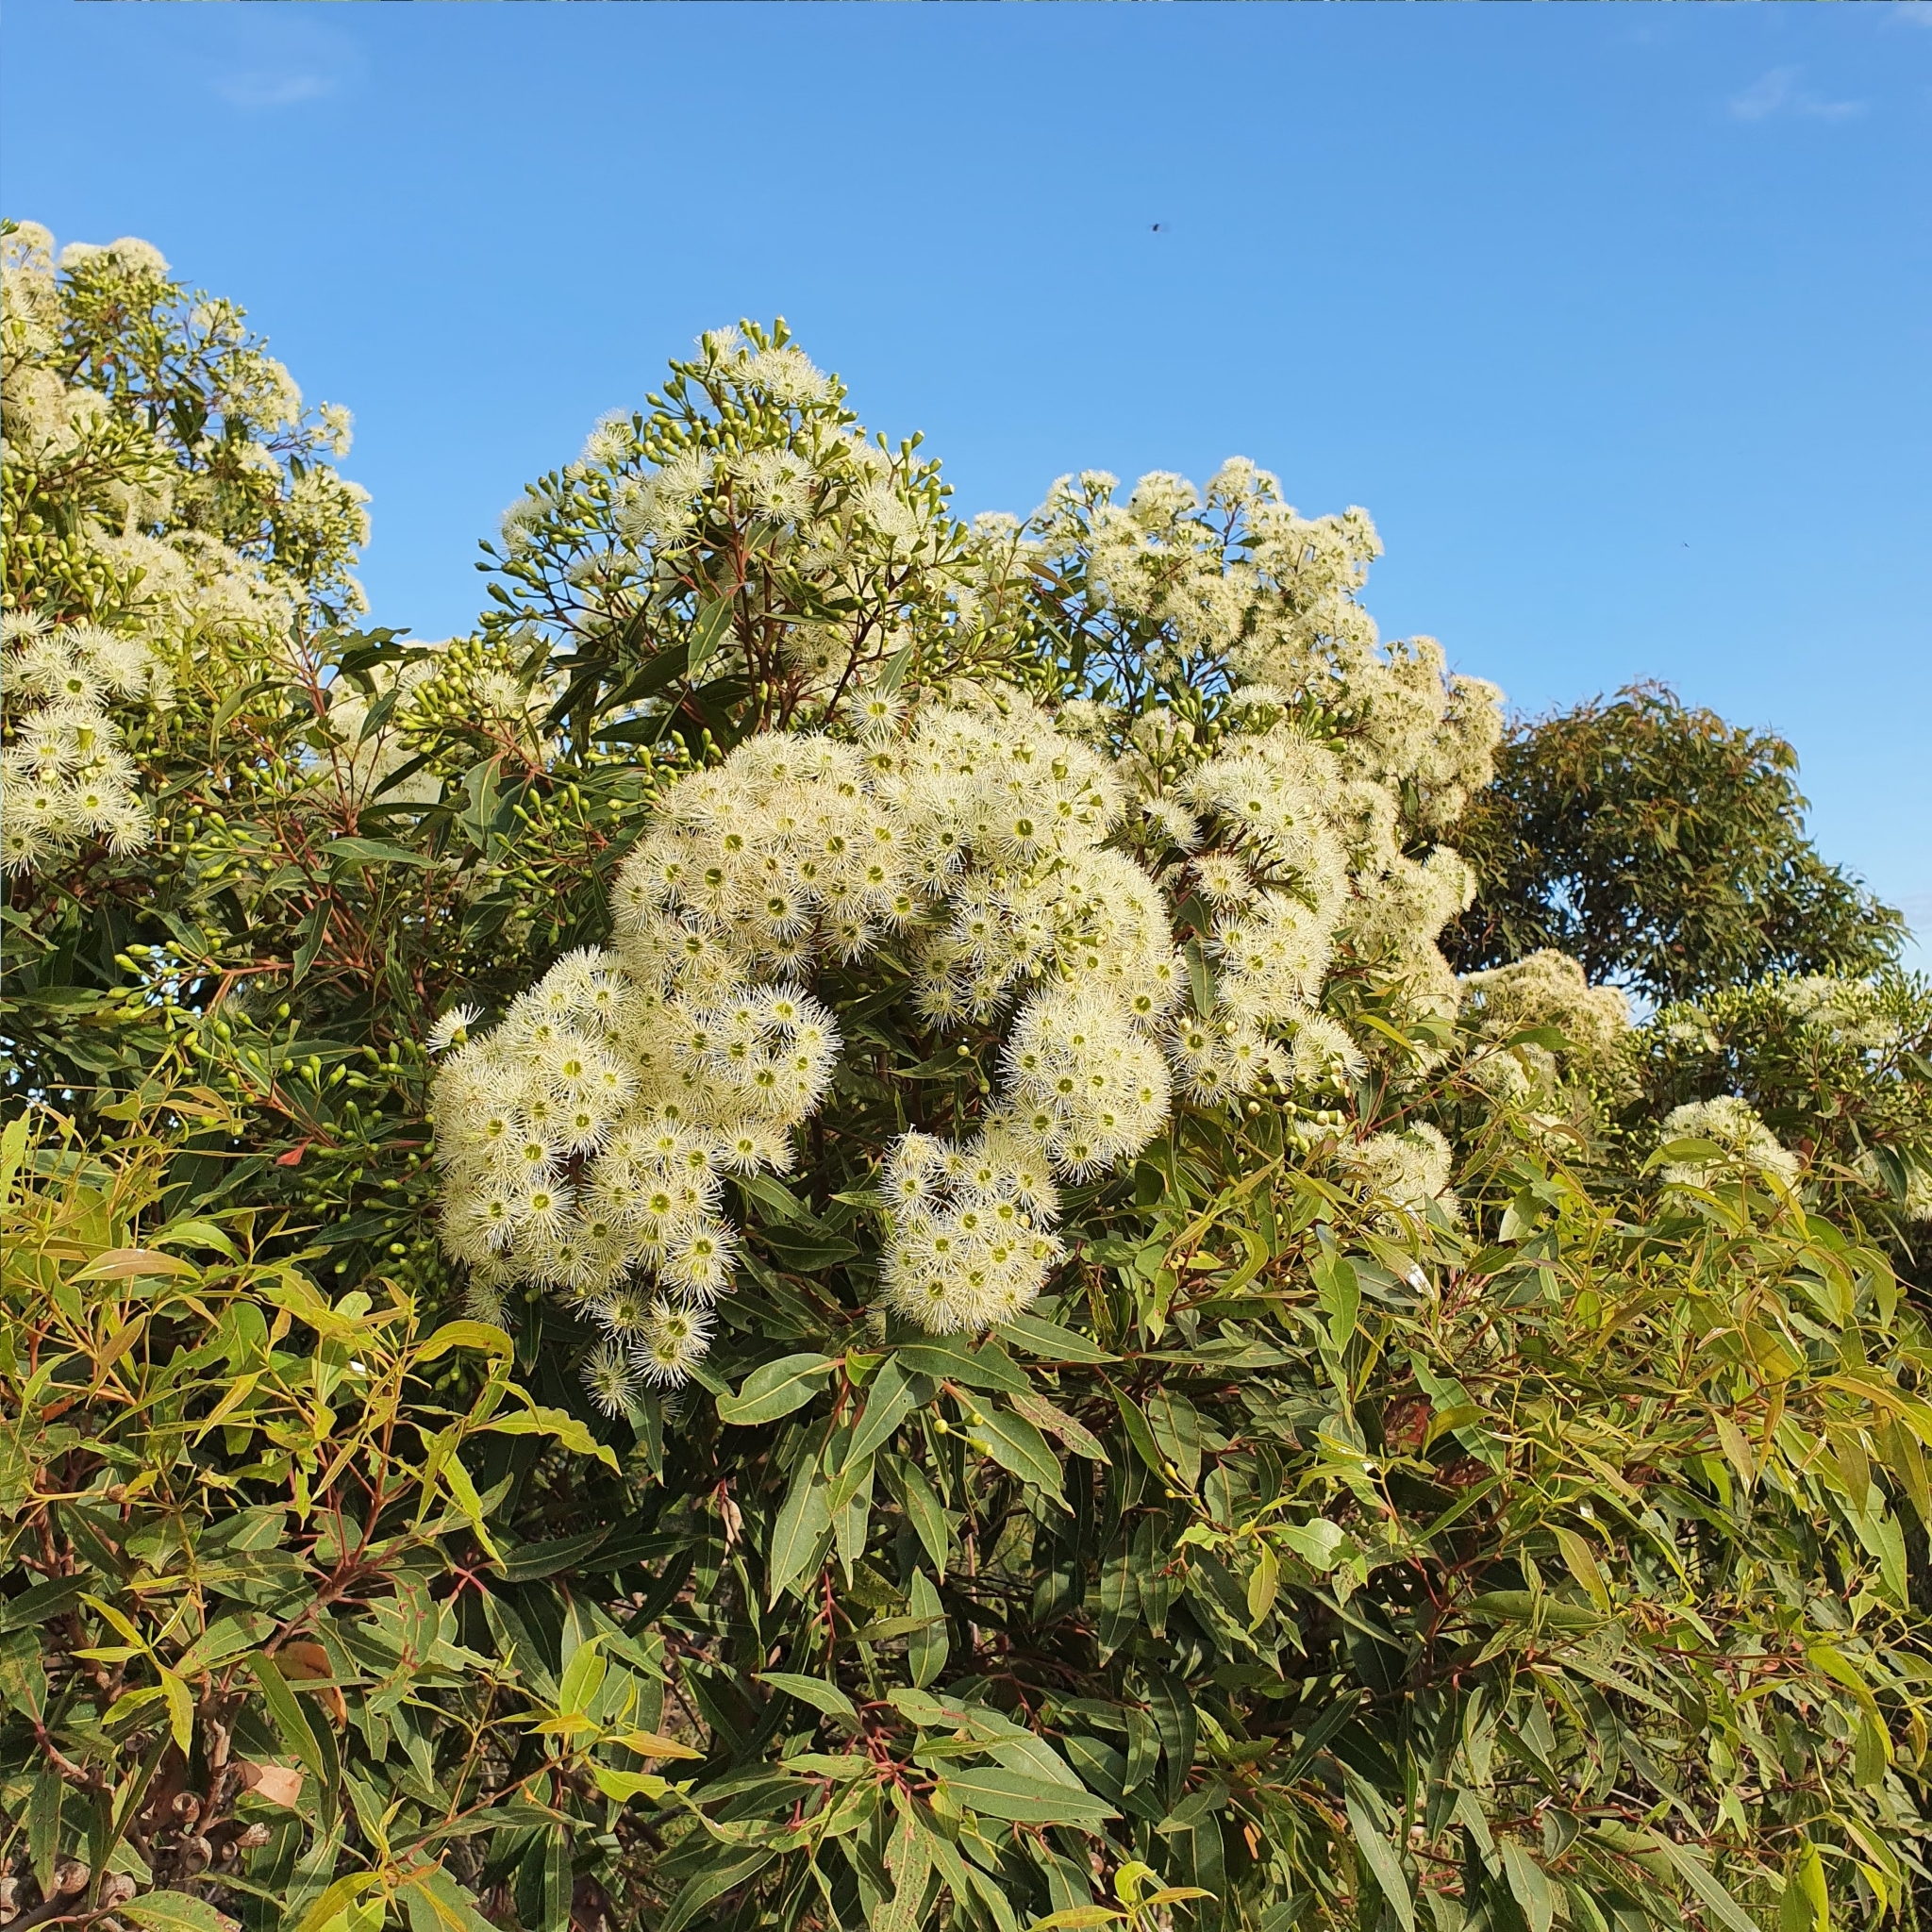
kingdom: Plantae
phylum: Tracheophyta
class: Magnoliopsida
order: Myrtales
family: Myrtaceae
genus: Corymbia
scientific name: Corymbia gummifera
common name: Red bloodwood
